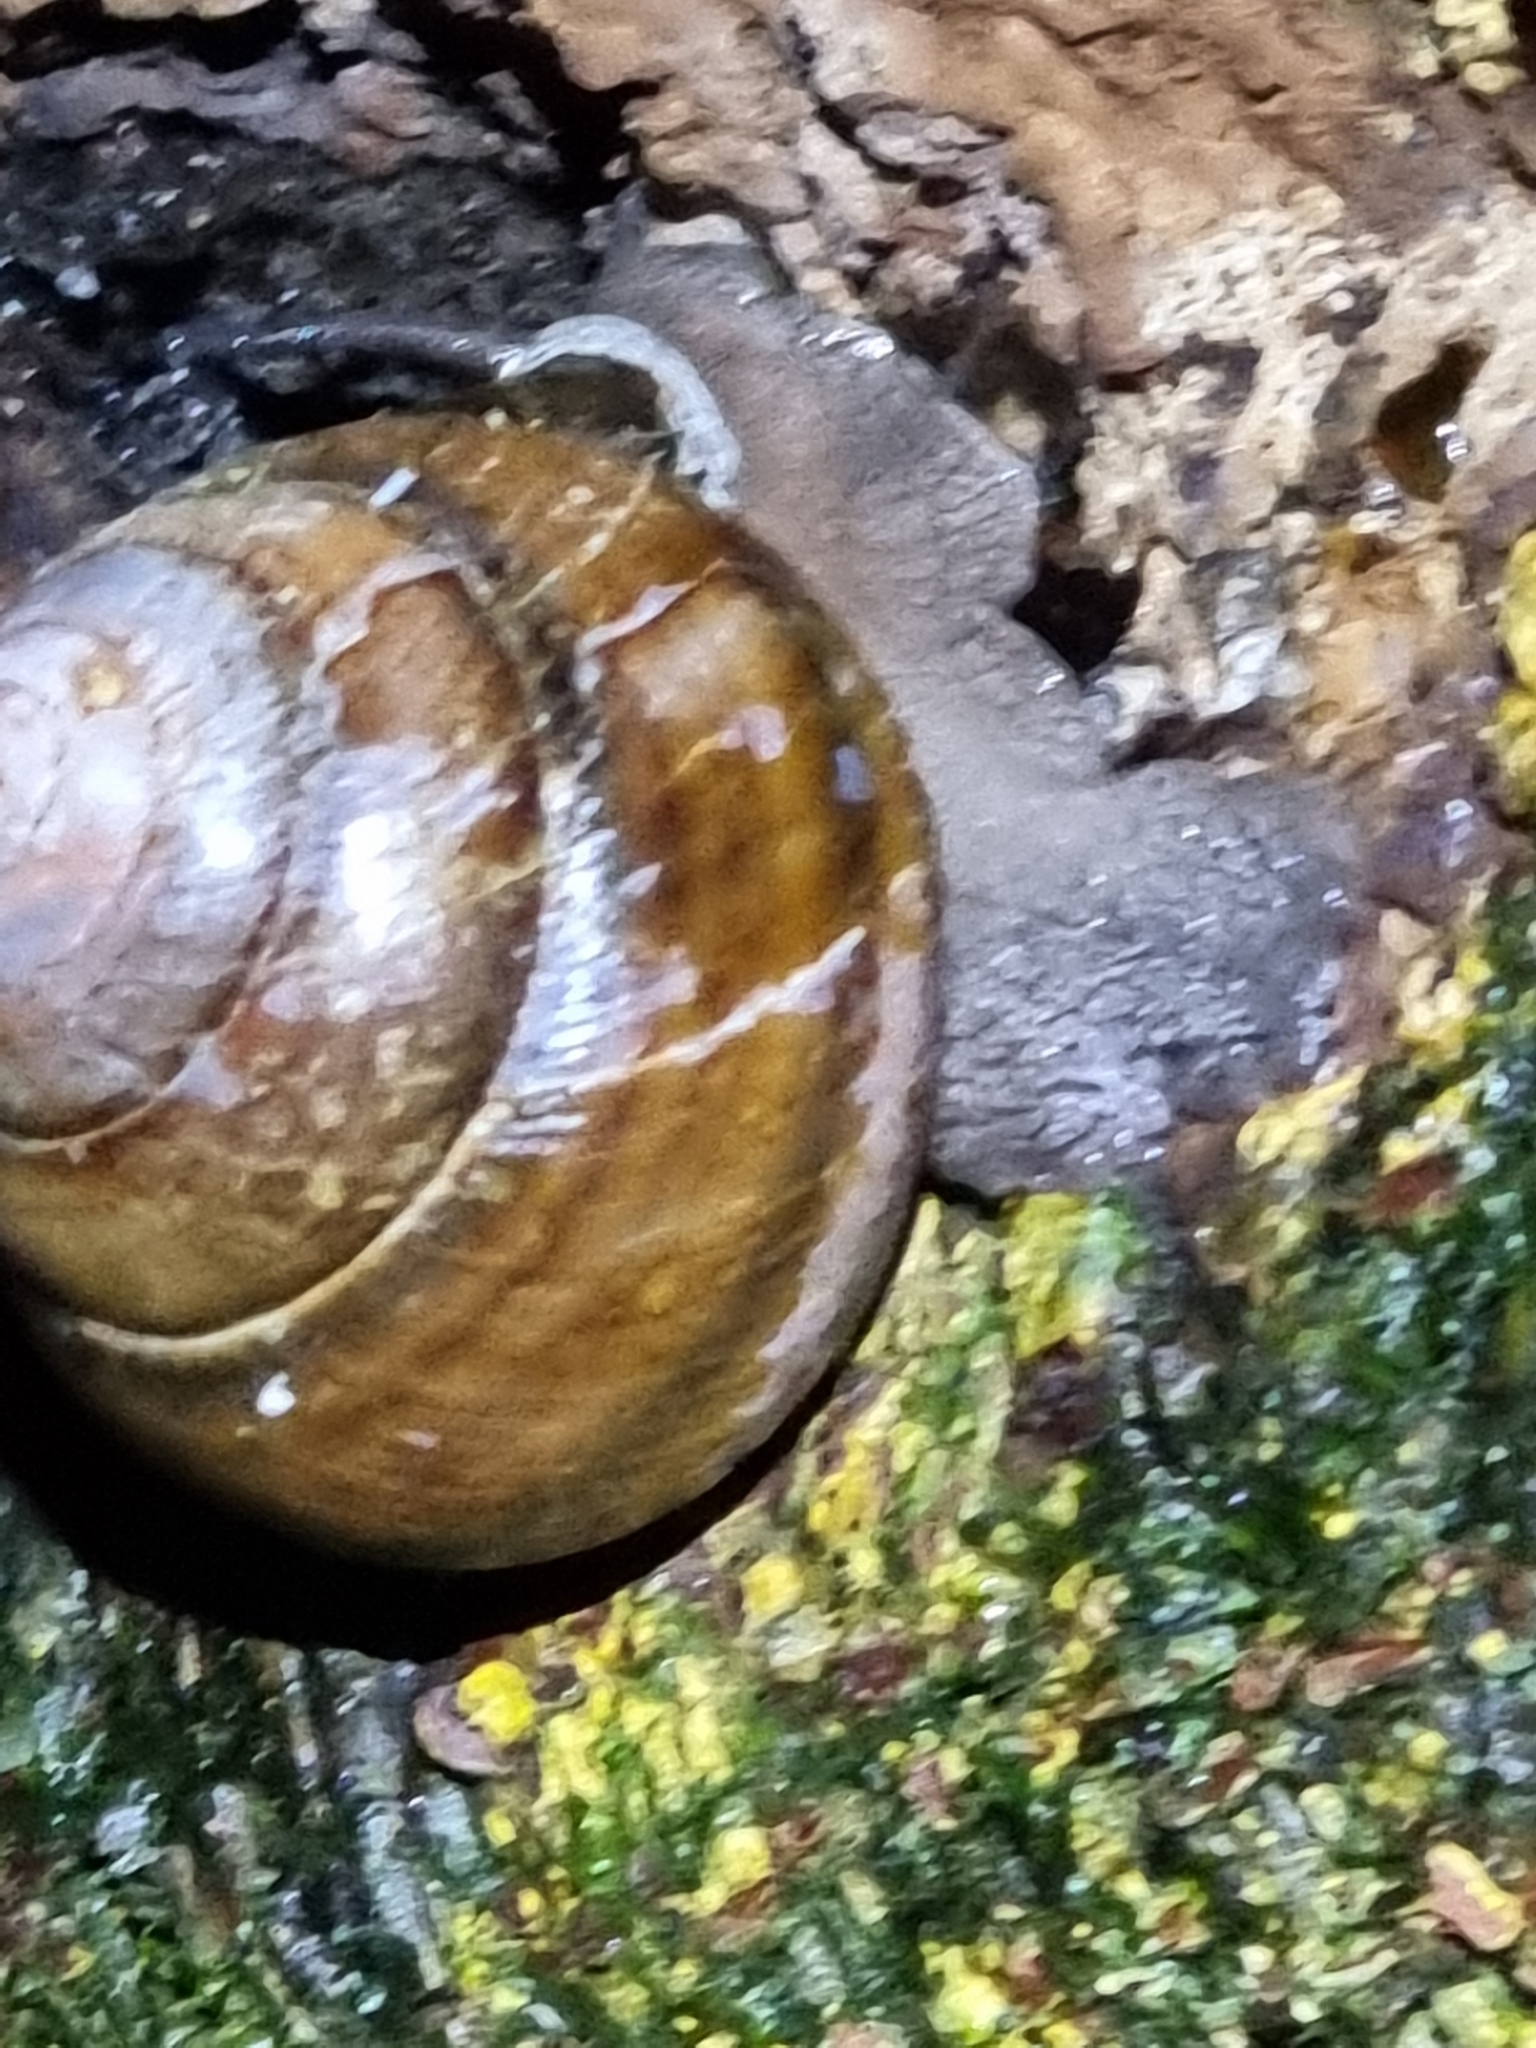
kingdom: Animalia
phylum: Mollusca
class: Gastropoda
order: Stylommatophora
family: Camaenidae
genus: Sphaerospira
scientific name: Sphaerospira fraseri
